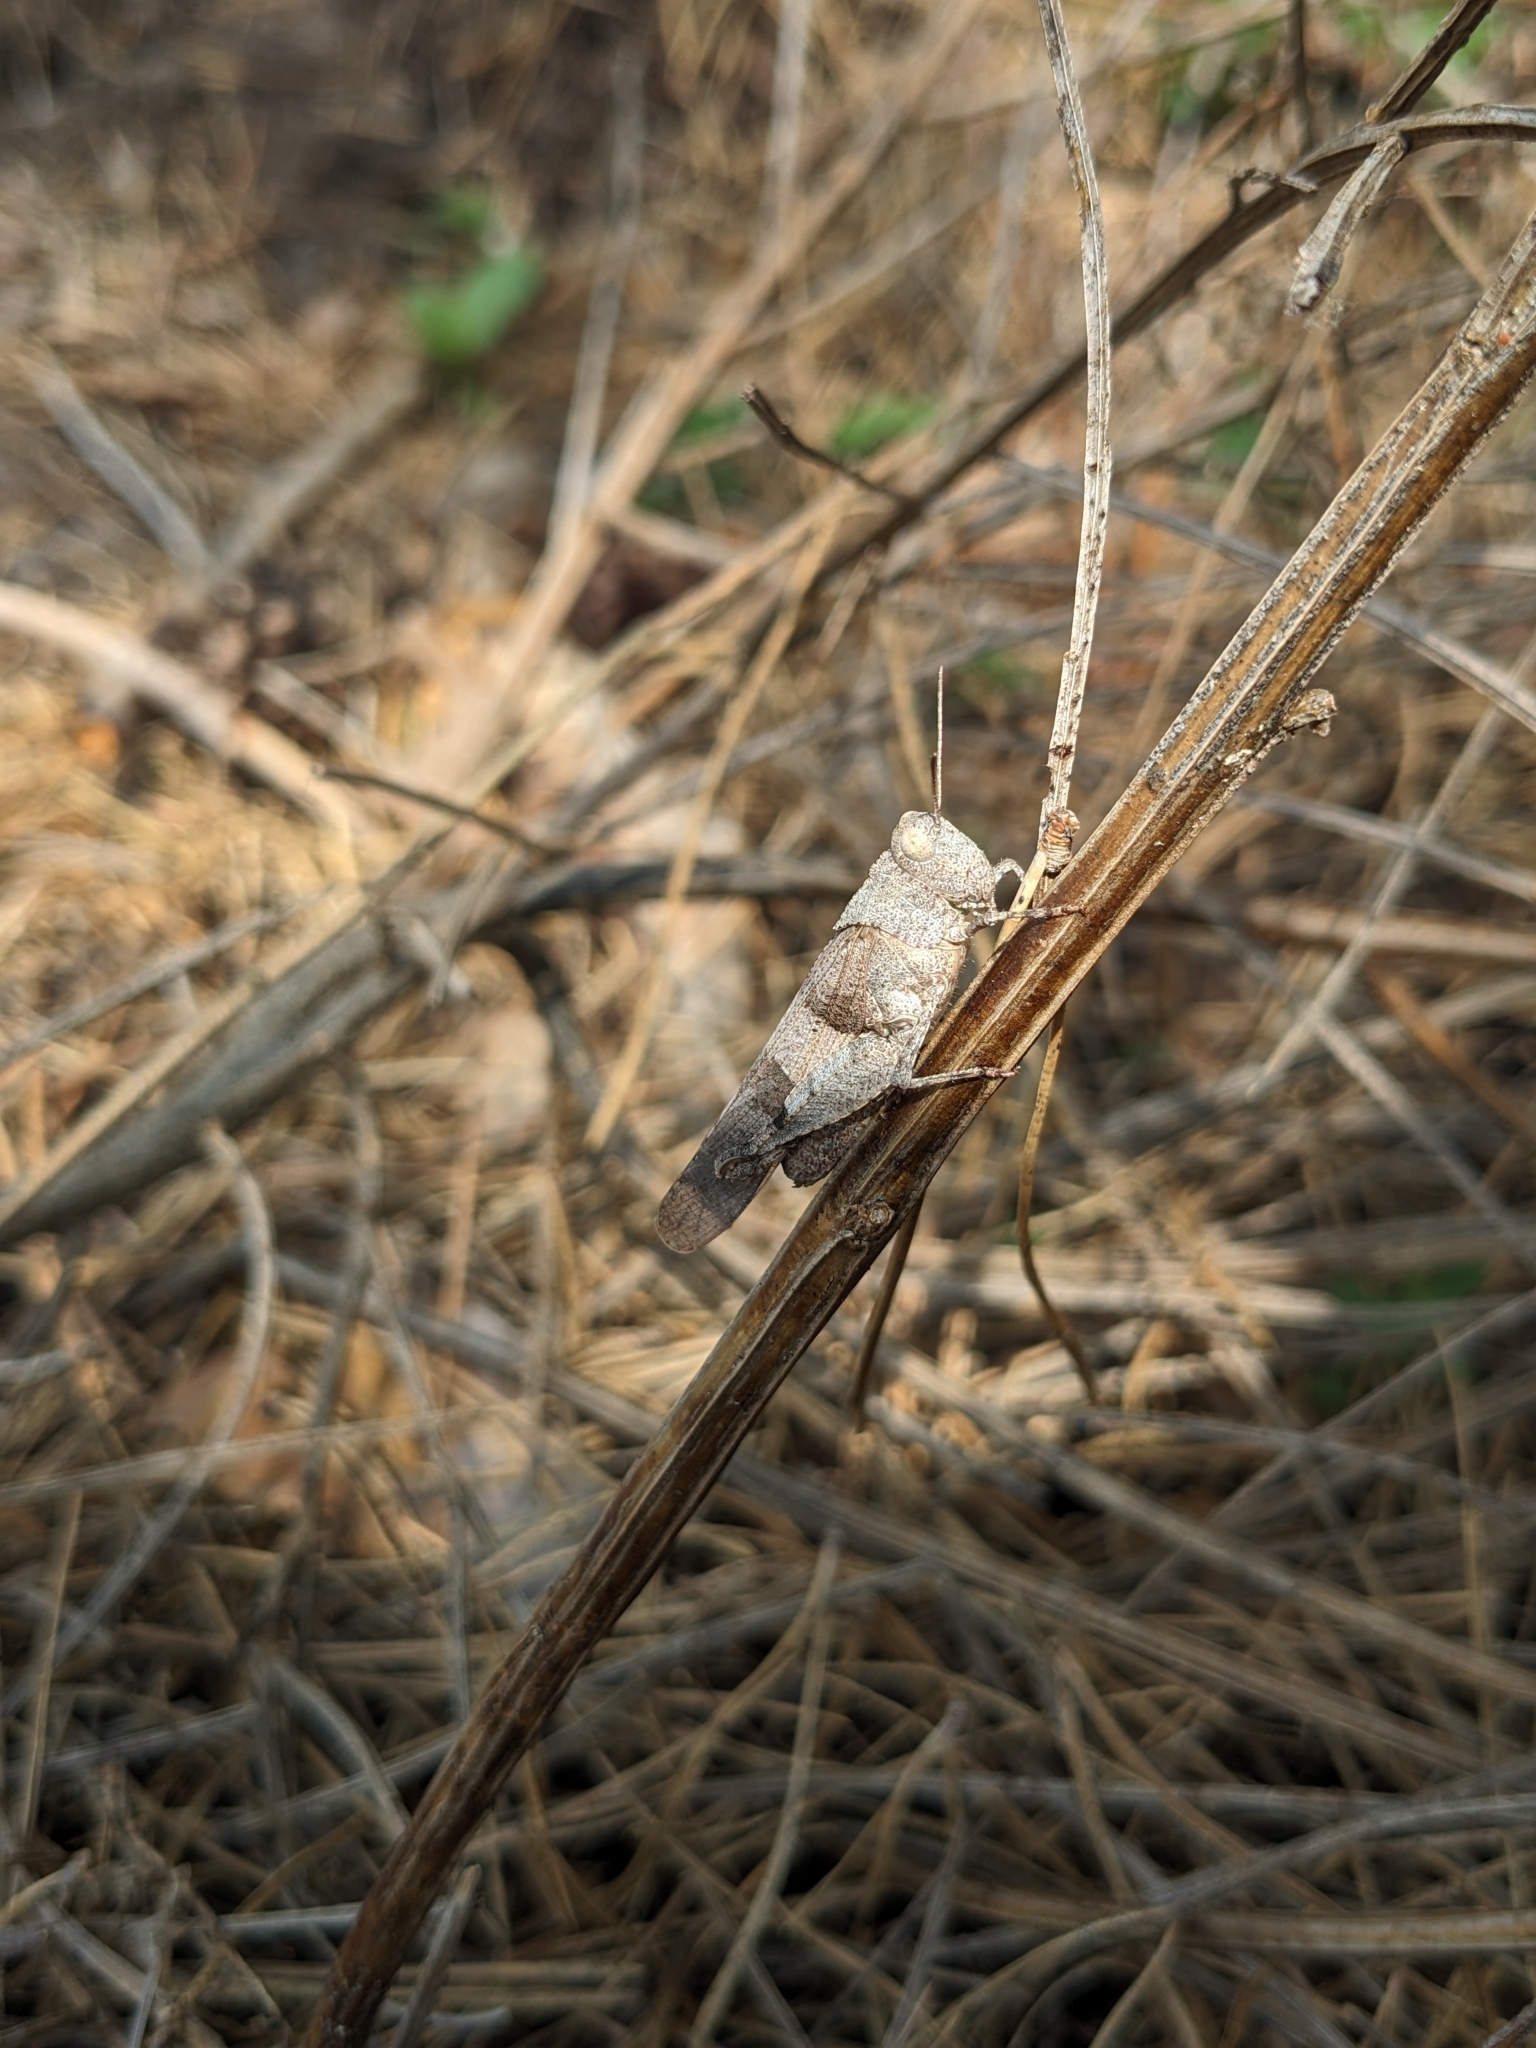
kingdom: Animalia
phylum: Arthropoda
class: Insecta
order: Orthoptera
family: Acrididae
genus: Oedipoda
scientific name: Oedipoda caerulescens
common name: Blue-winged grasshopper
